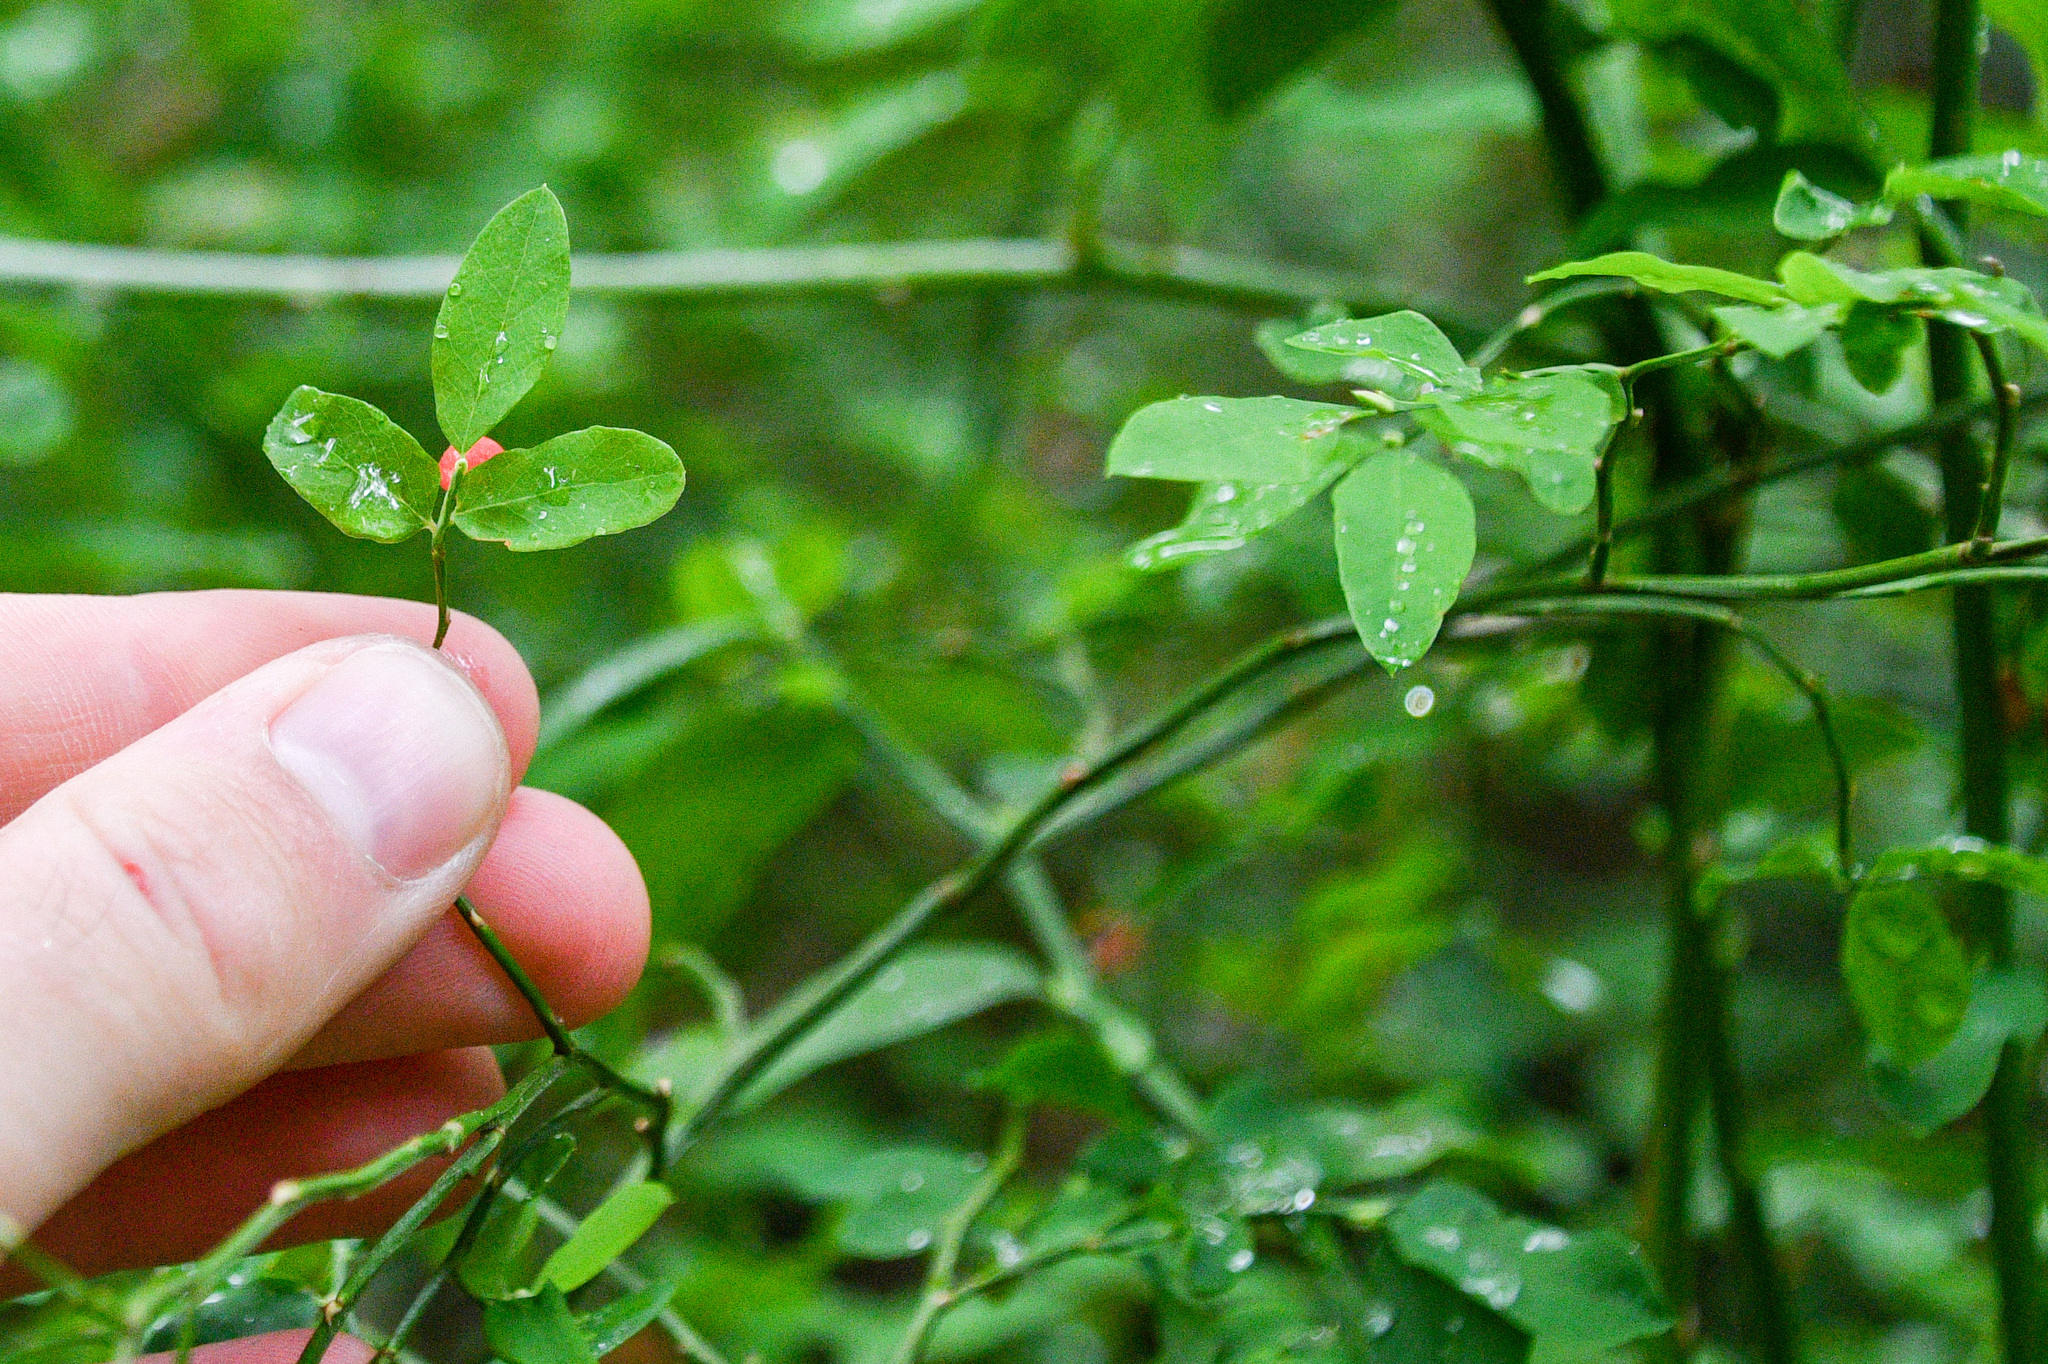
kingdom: Plantae
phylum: Tracheophyta
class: Magnoliopsida
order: Ericales
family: Ericaceae
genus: Vaccinium
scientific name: Vaccinium parvifolium
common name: Red-huckleberry
